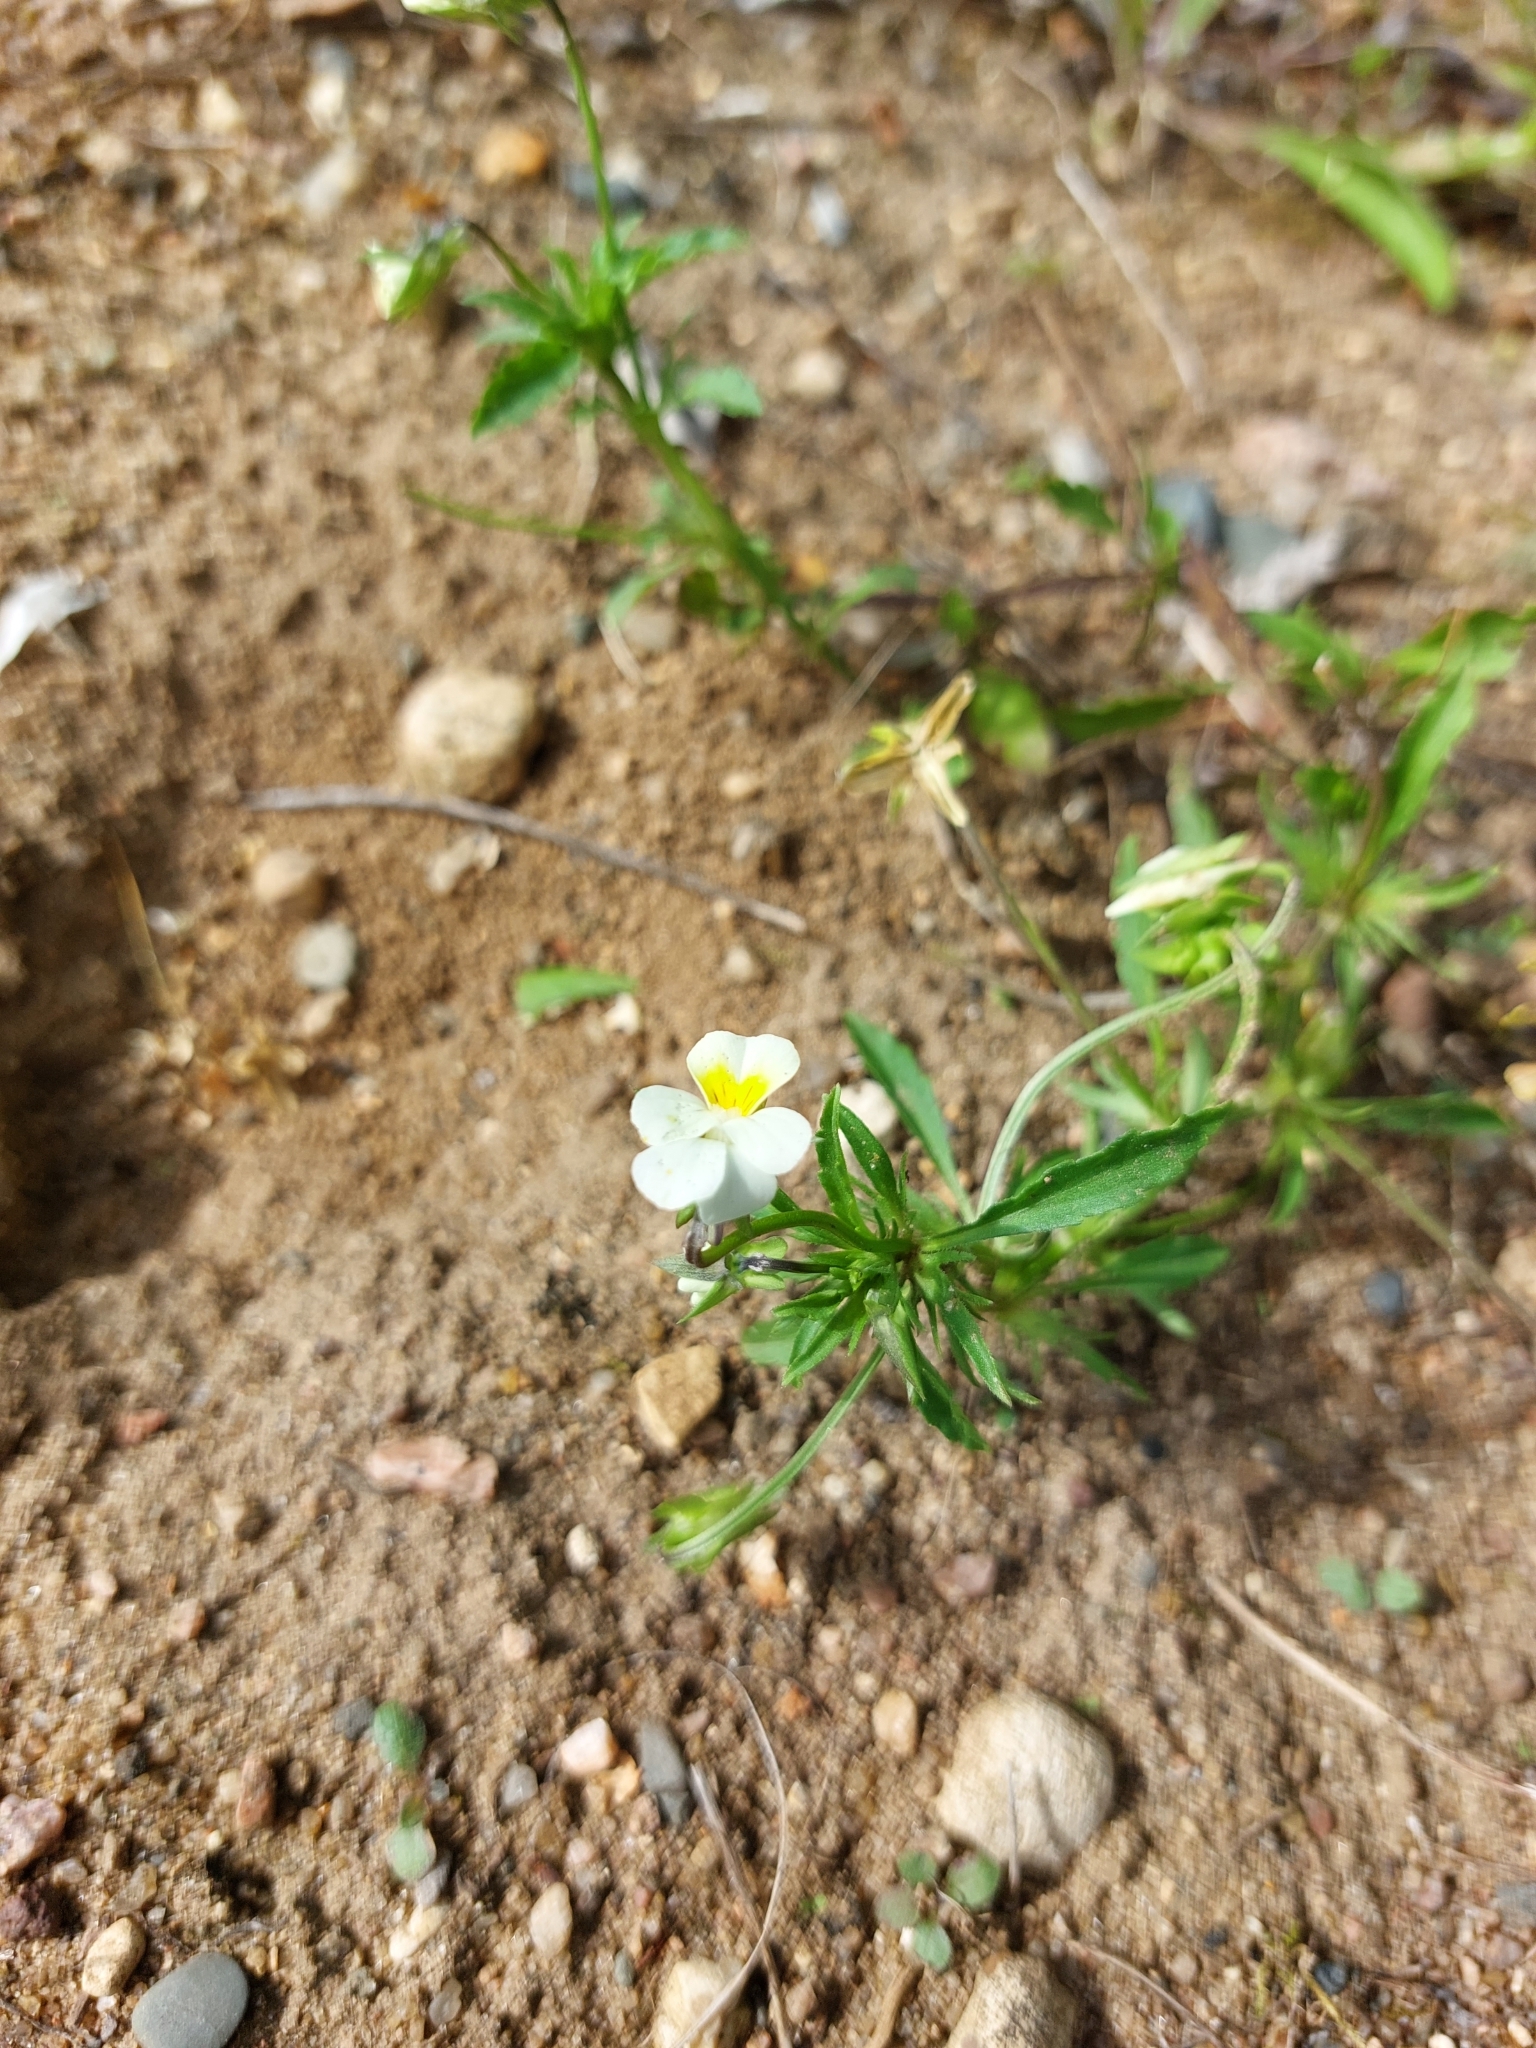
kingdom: Plantae
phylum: Tracheophyta
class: Magnoliopsida
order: Malpighiales
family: Violaceae
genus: Viola
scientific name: Viola arvensis
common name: Field pansy
